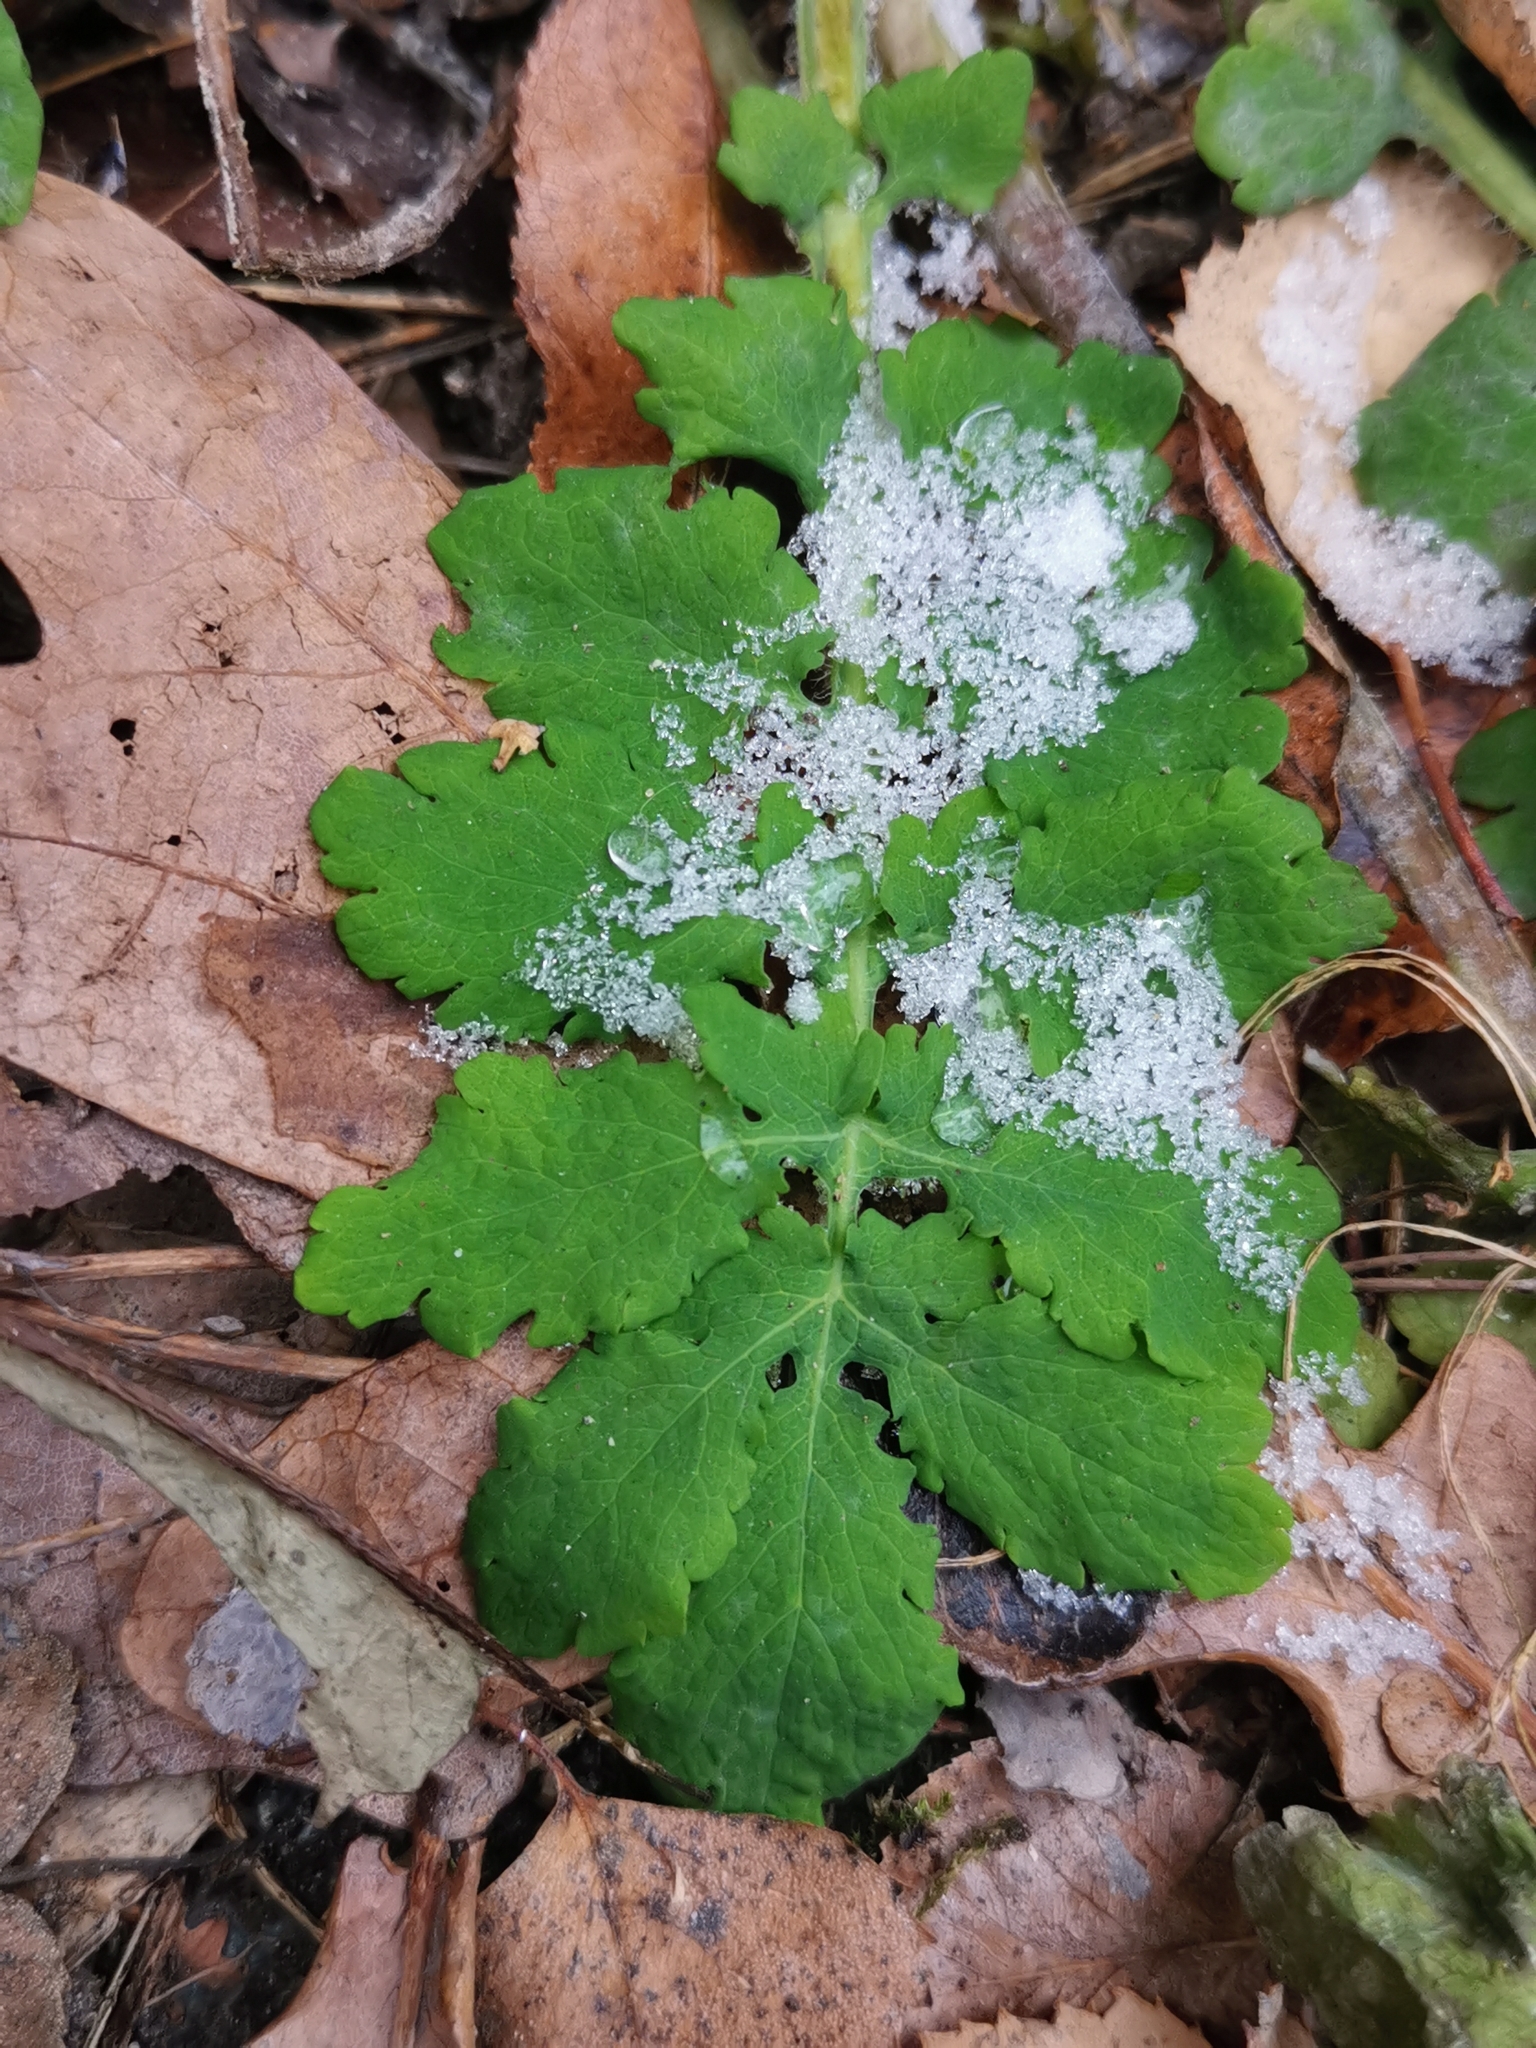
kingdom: Plantae
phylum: Tracheophyta
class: Magnoliopsida
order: Ranunculales
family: Papaveraceae
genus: Chelidonium
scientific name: Chelidonium majus
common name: Greater celandine
